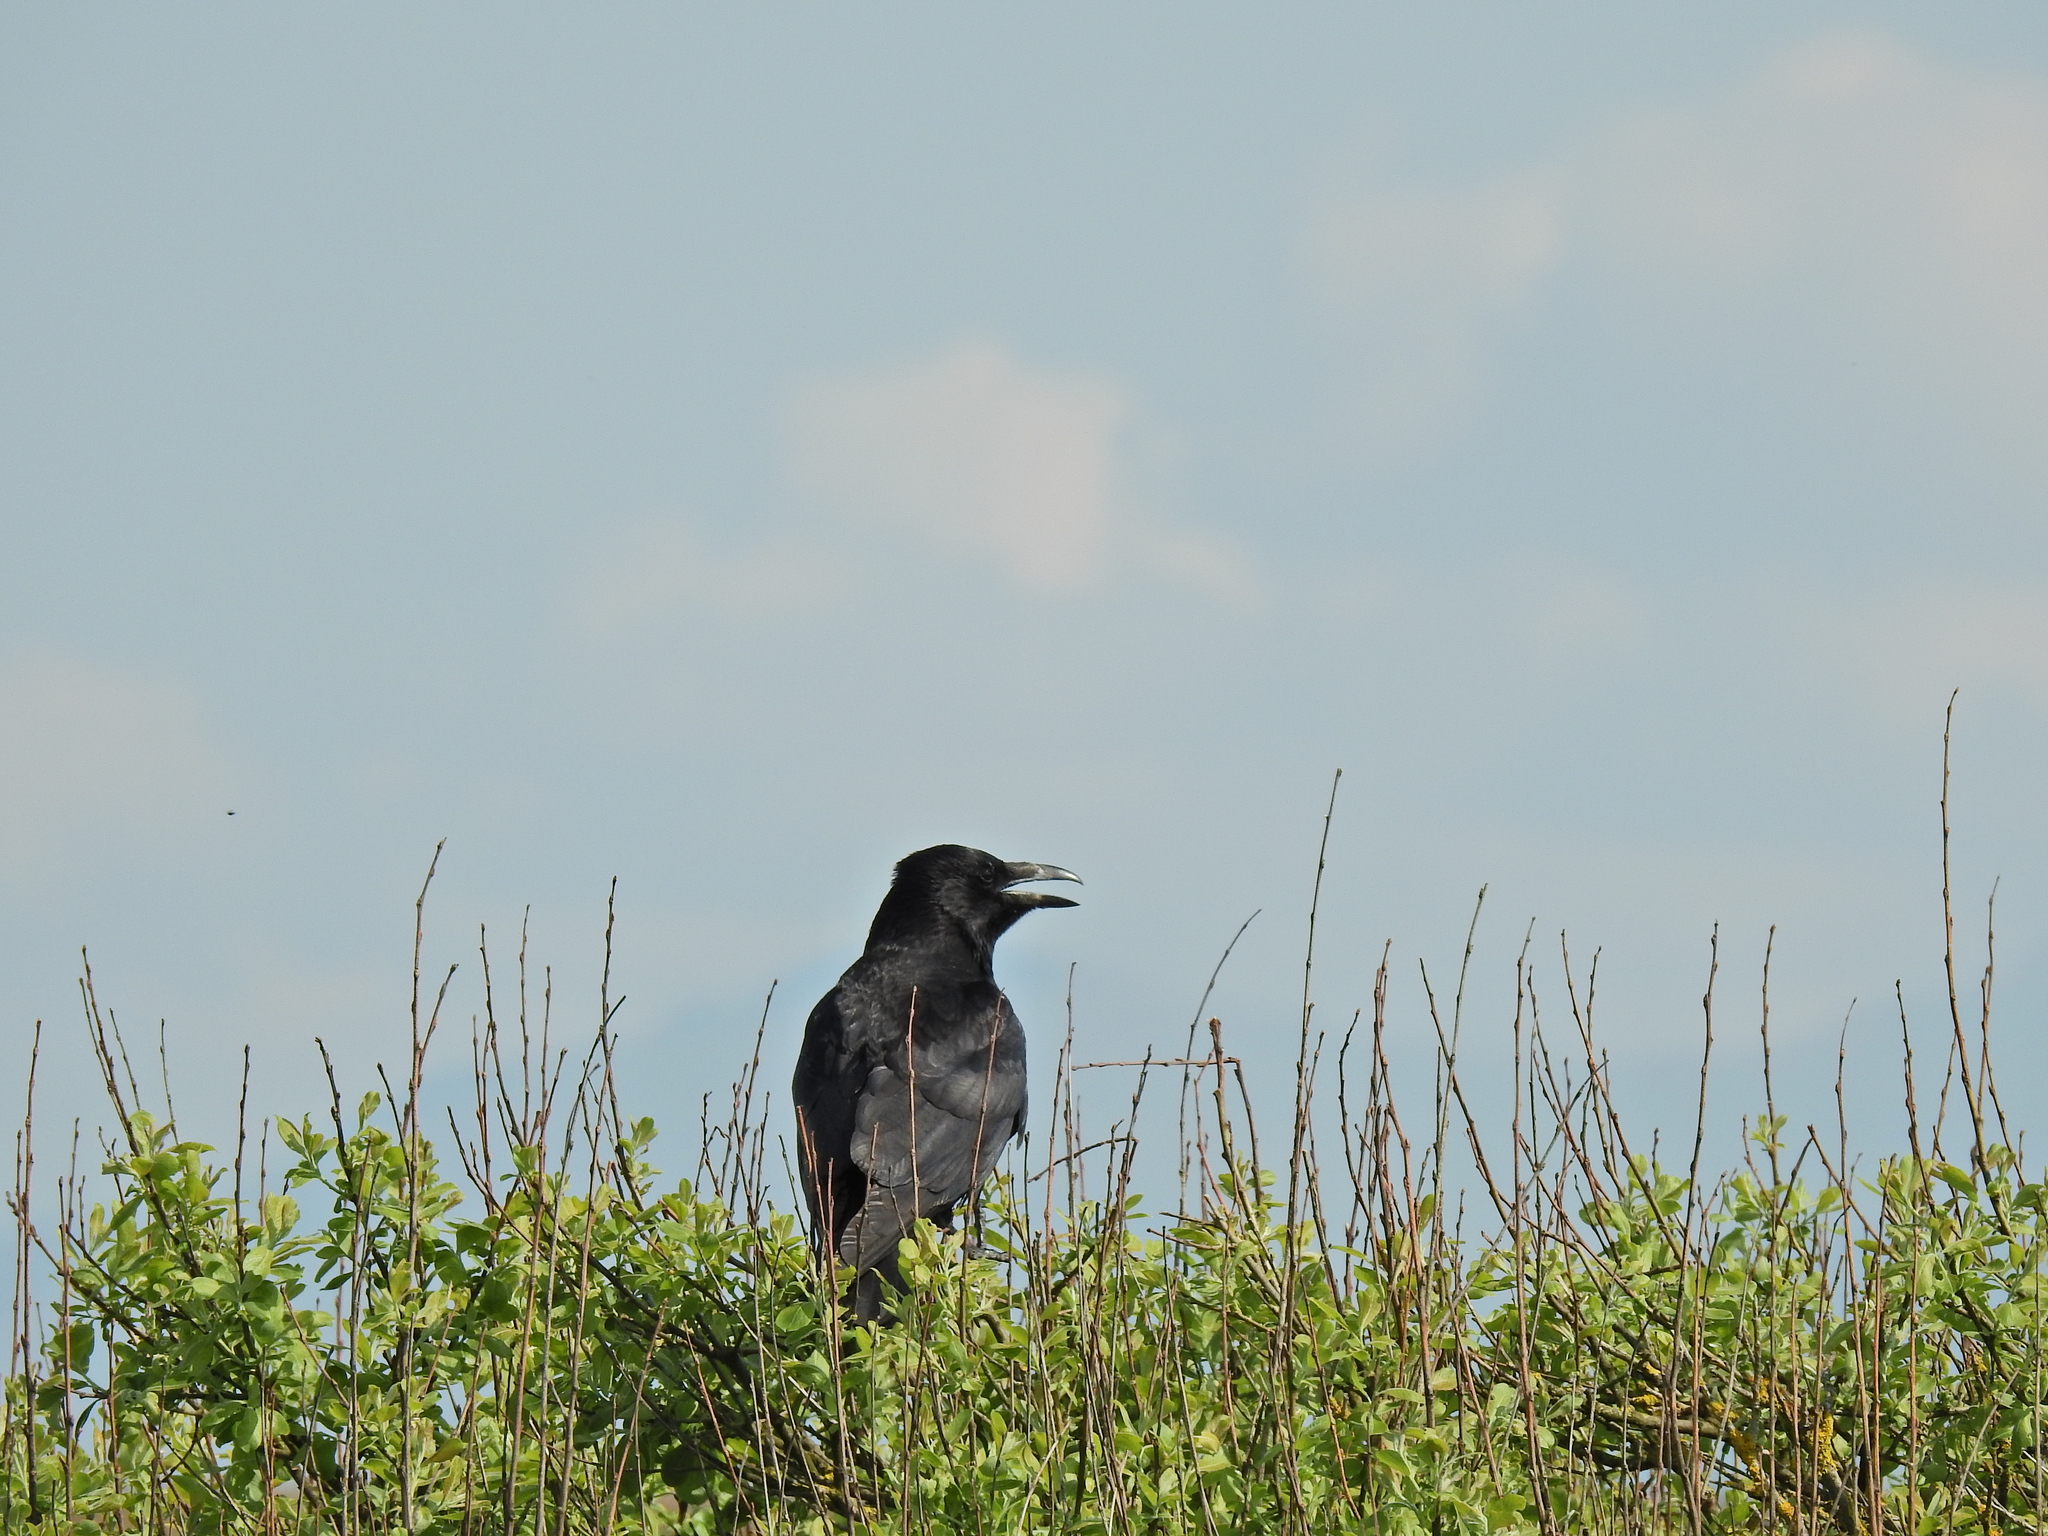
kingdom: Animalia
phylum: Chordata
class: Aves
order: Passeriformes
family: Corvidae
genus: Corvus
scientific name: Corvus corone
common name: Carrion crow
